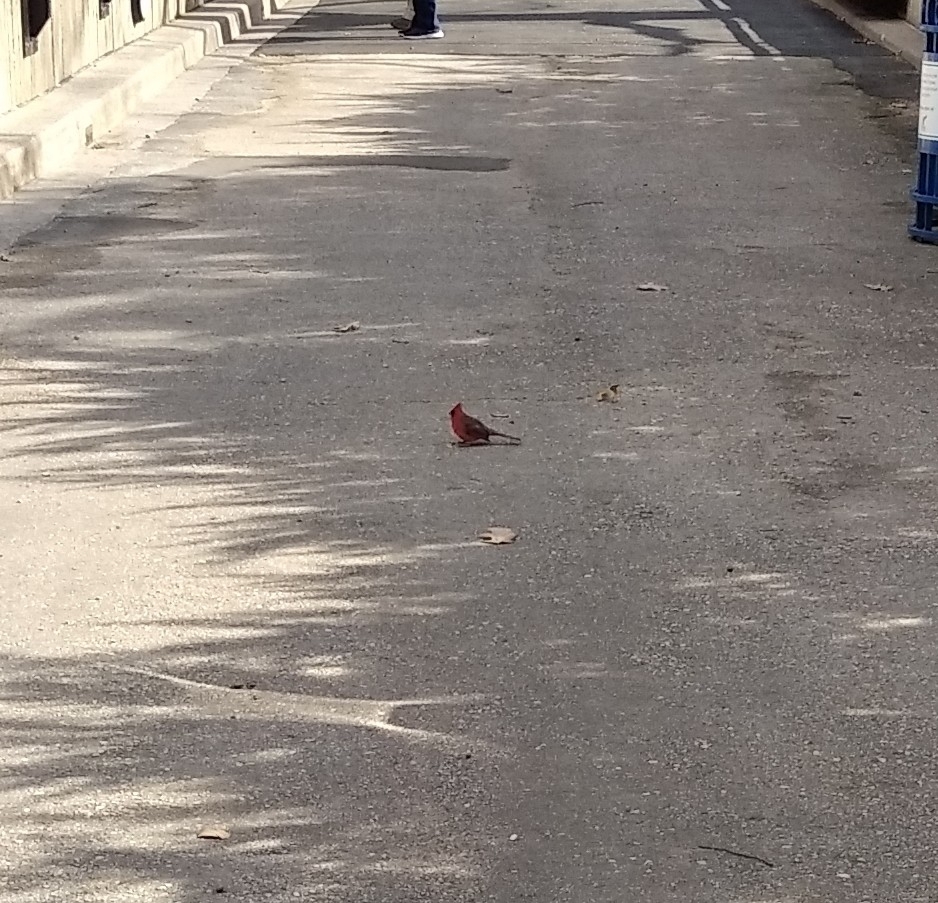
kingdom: Animalia
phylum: Chordata
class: Aves
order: Passeriformes
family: Cardinalidae
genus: Cardinalis
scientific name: Cardinalis cardinalis
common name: Northern cardinal
